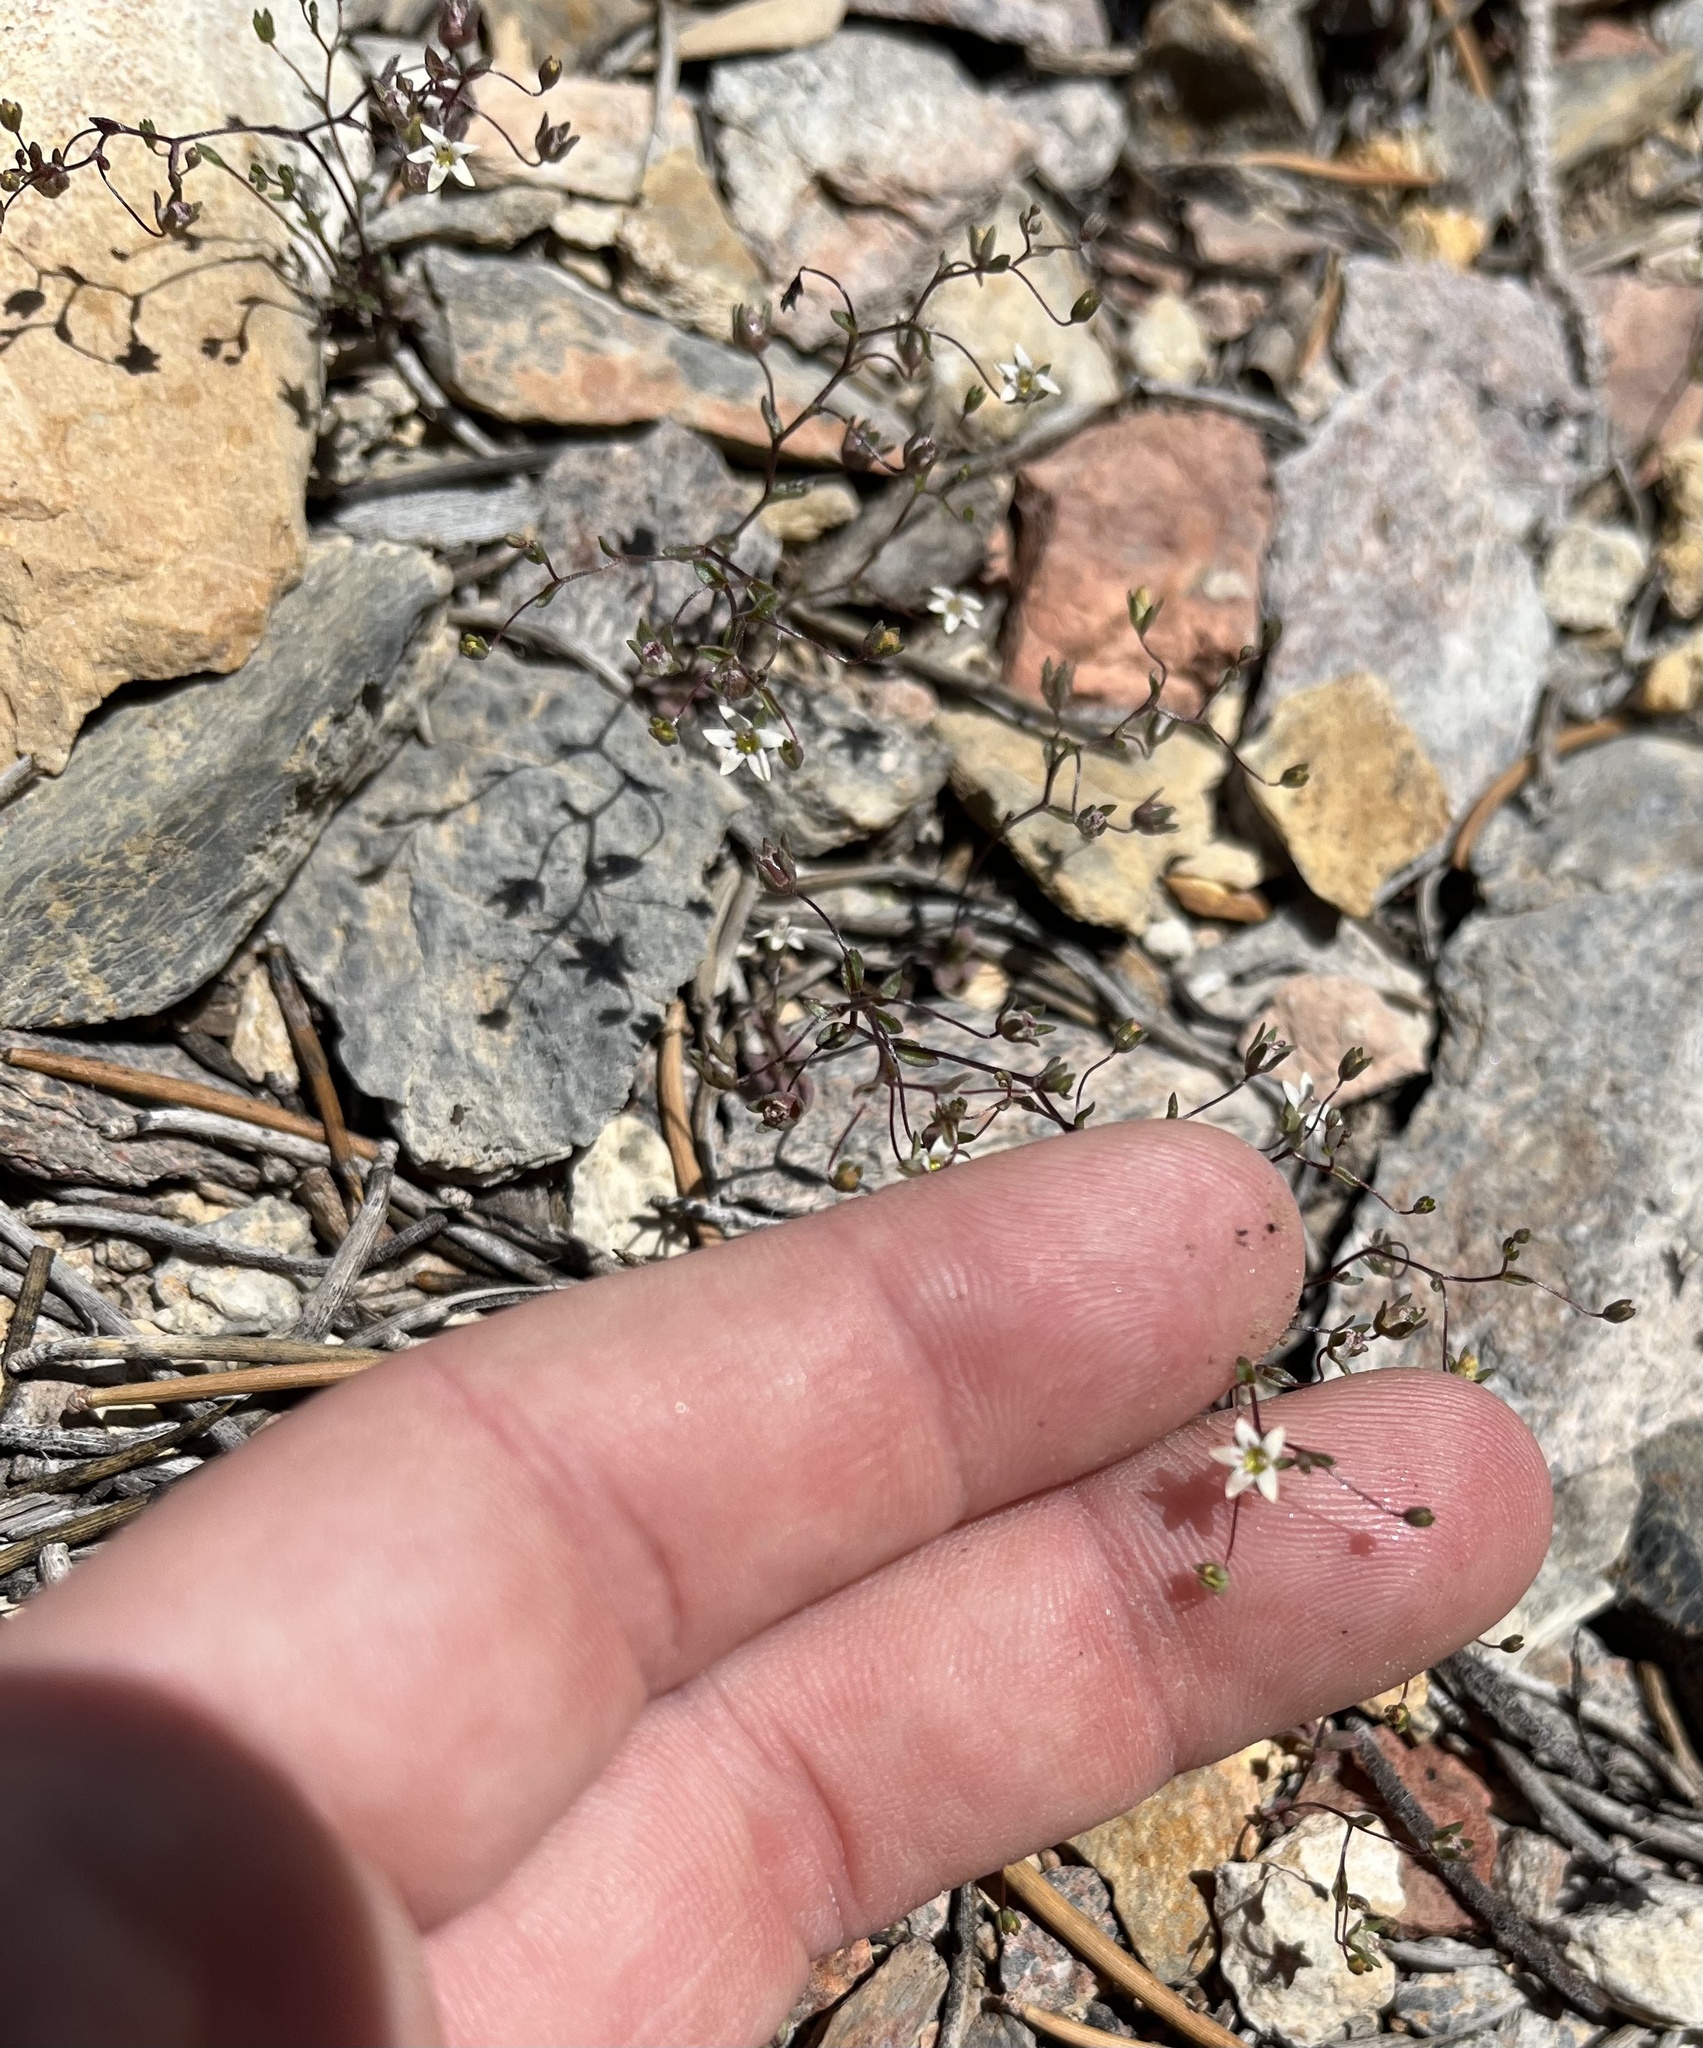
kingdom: Plantae
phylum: Tracheophyta
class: Magnoliopsida
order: Asterales
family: Campanulaceae
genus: Nemacladus
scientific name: Nemacladus inyoensis
